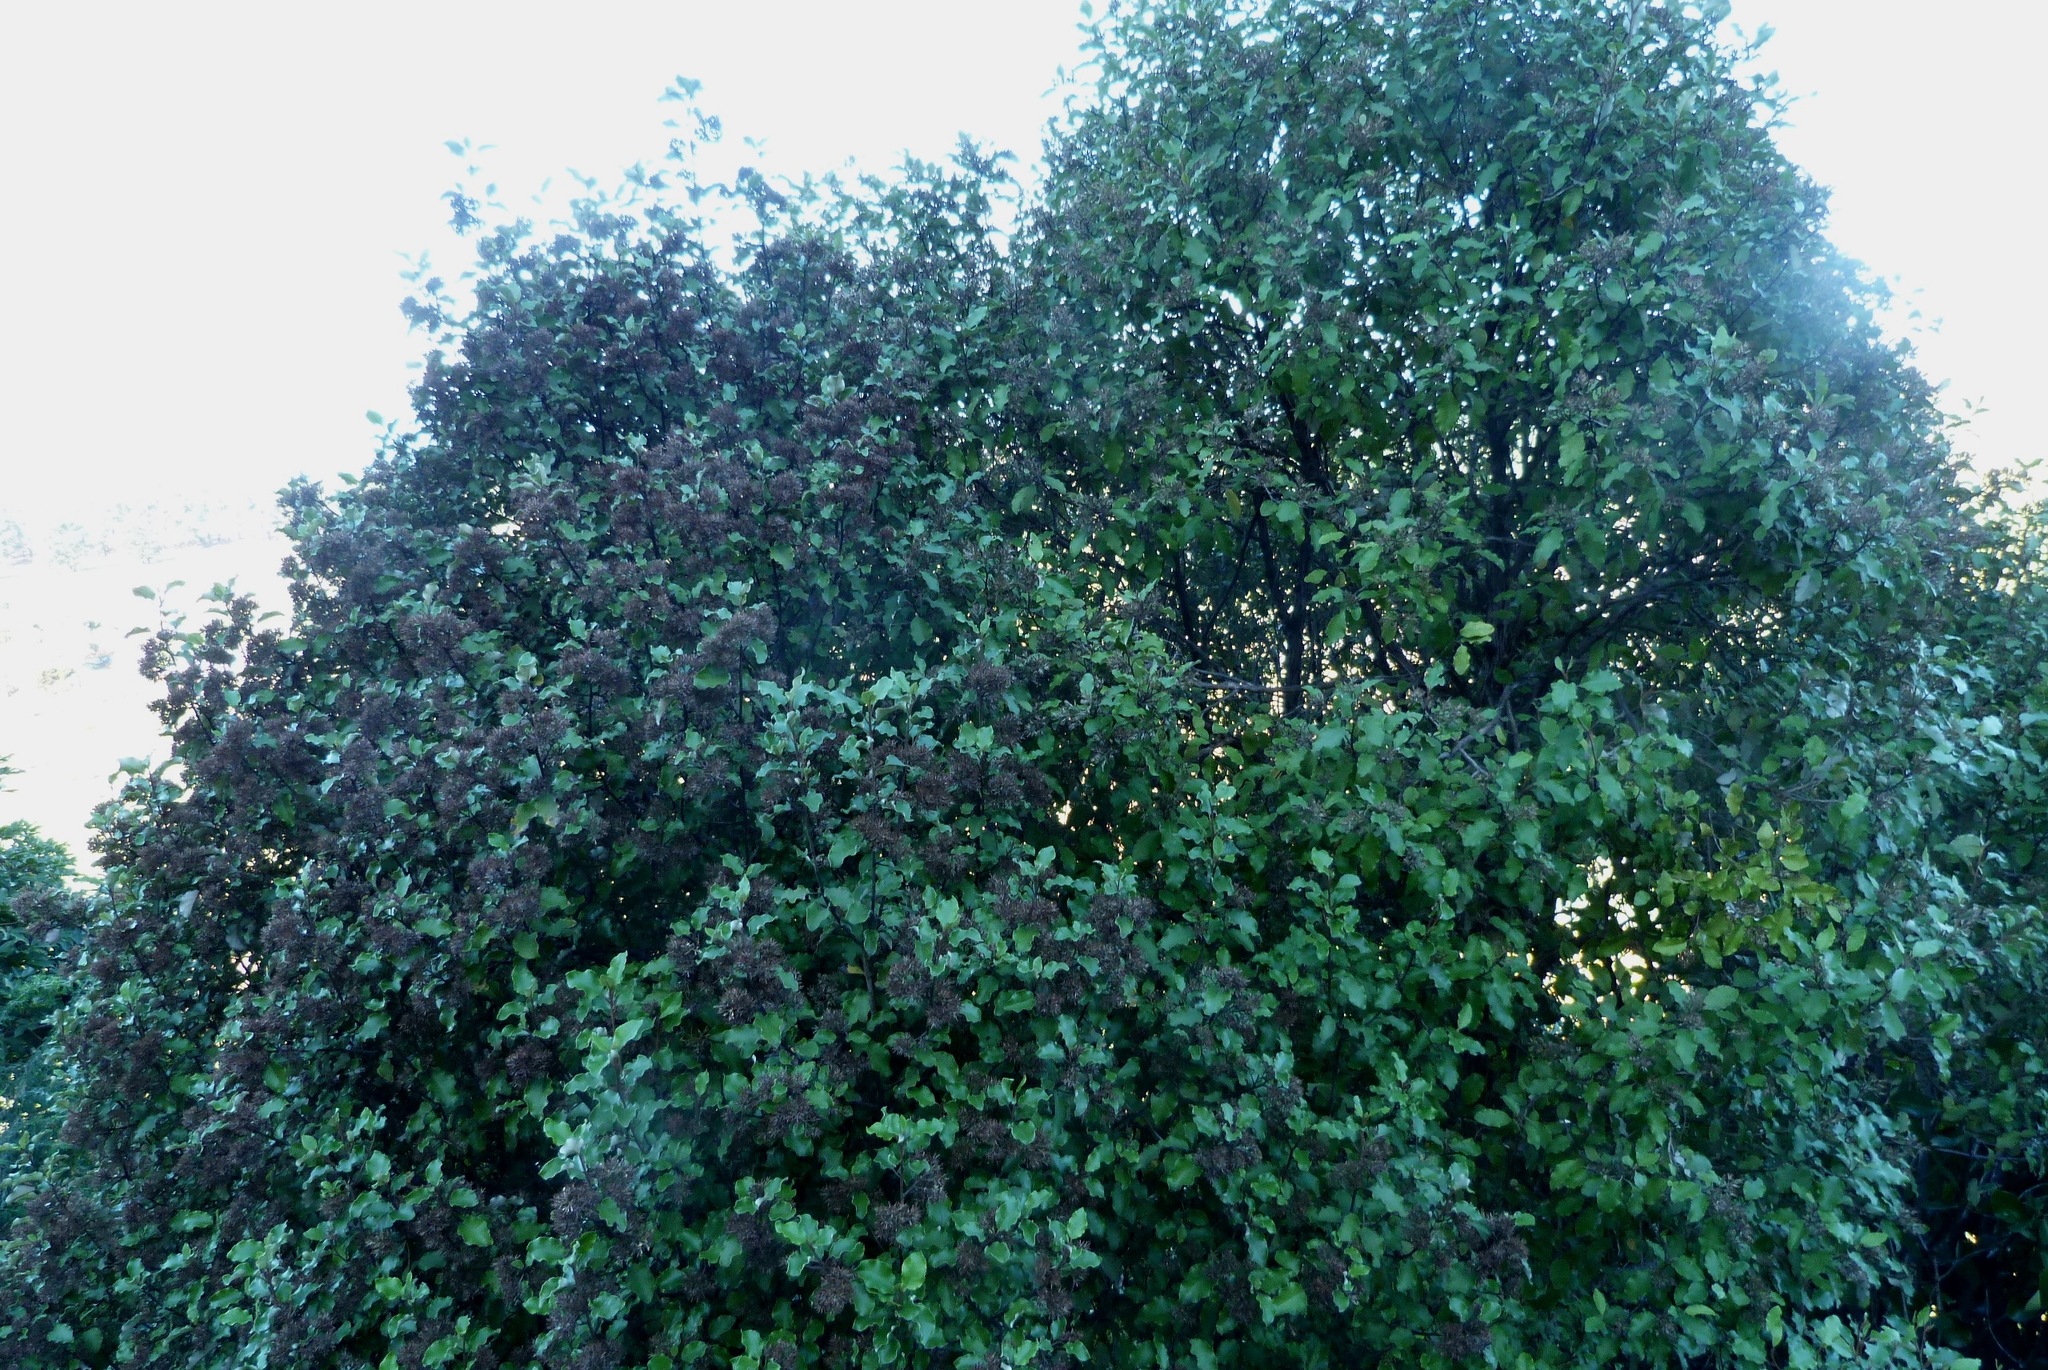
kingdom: Plantae
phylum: Tracheophyta
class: Magnoliopsida
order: Asterales
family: Asteraceae
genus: Olearia
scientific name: Olearia paniculata
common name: Akiraho
